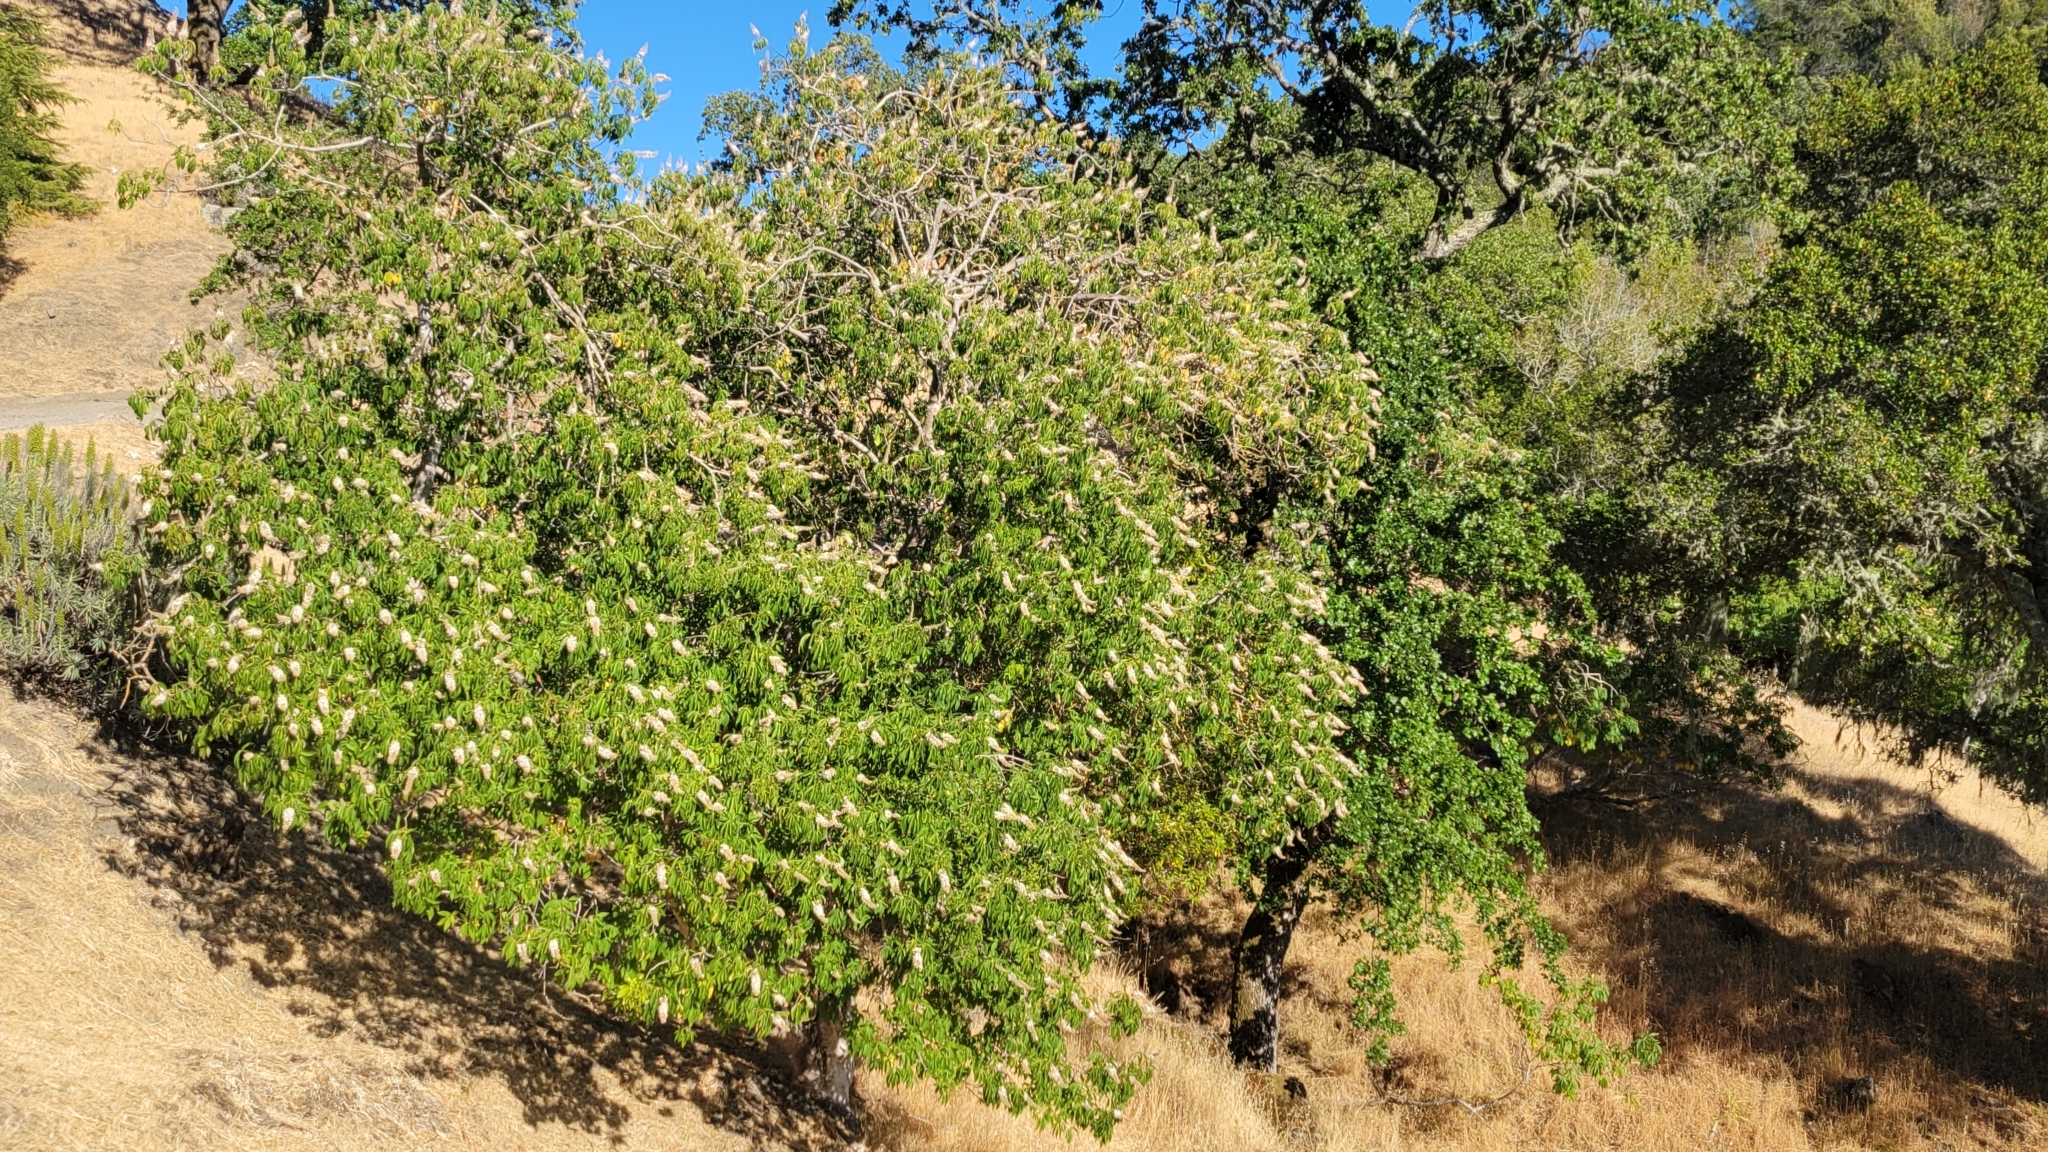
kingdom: Plantae
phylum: Tracheophyta
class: Magnoliopsida
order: Sapindales
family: Sapindaceae
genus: Aesculus
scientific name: Aesculus californica
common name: California buckeye
